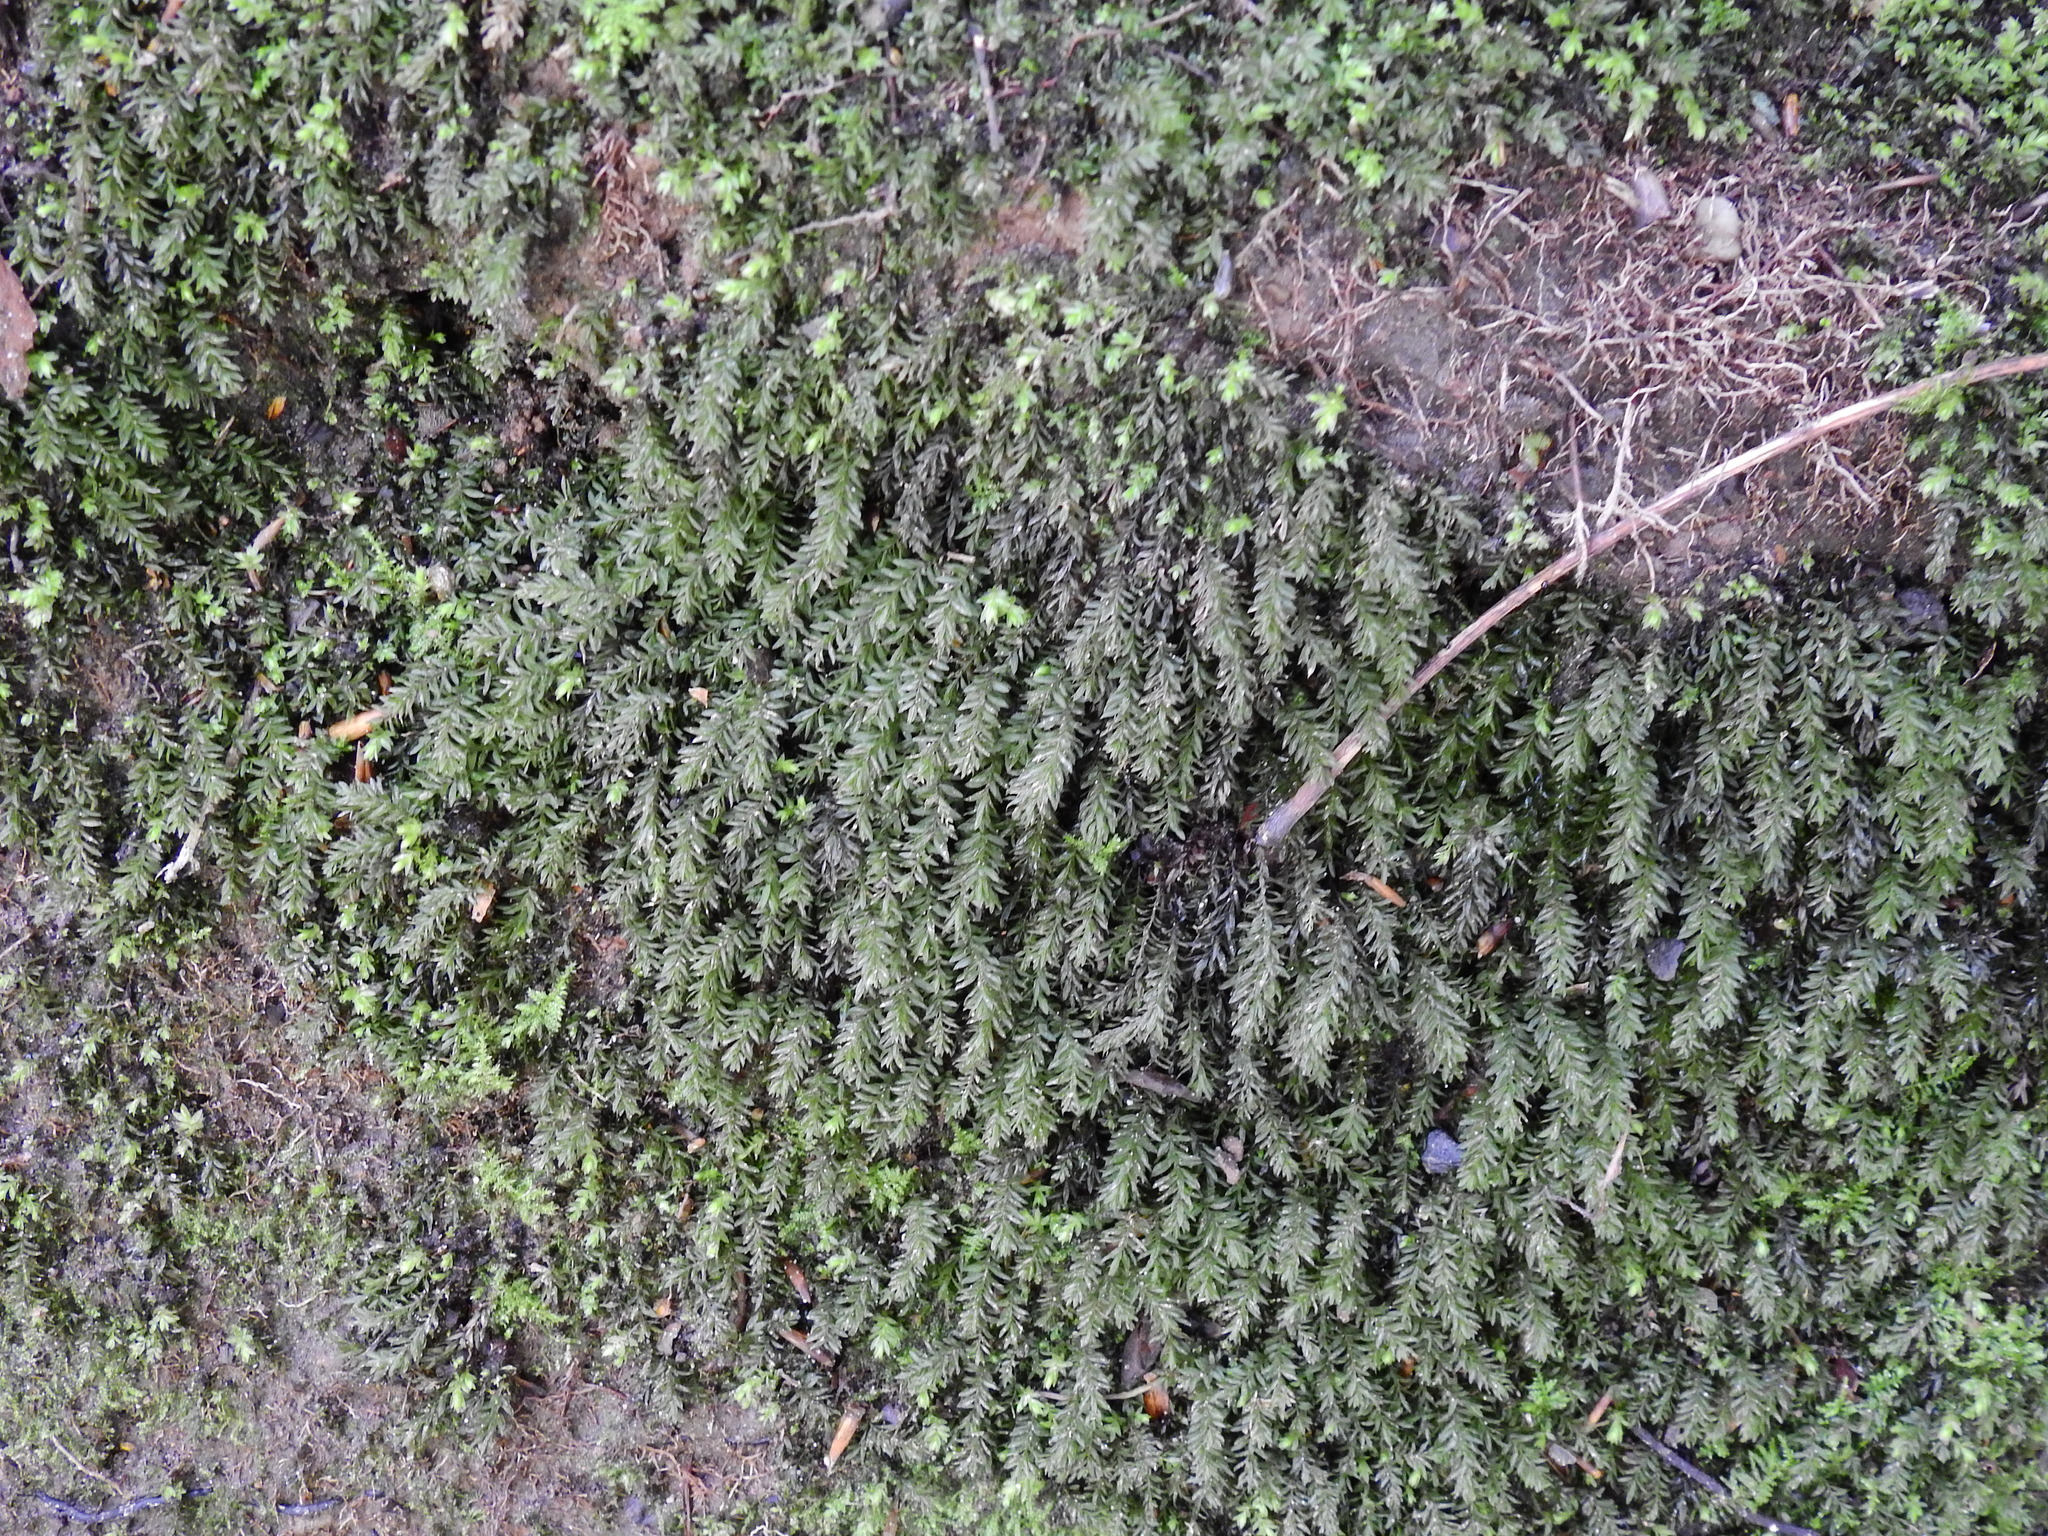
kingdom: Plantae
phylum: Bryophyta
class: Bryopsida
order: Bryales
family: Mniaceae
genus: Mnium
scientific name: Mnium hornum
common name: Swan's-neck leafy moss
